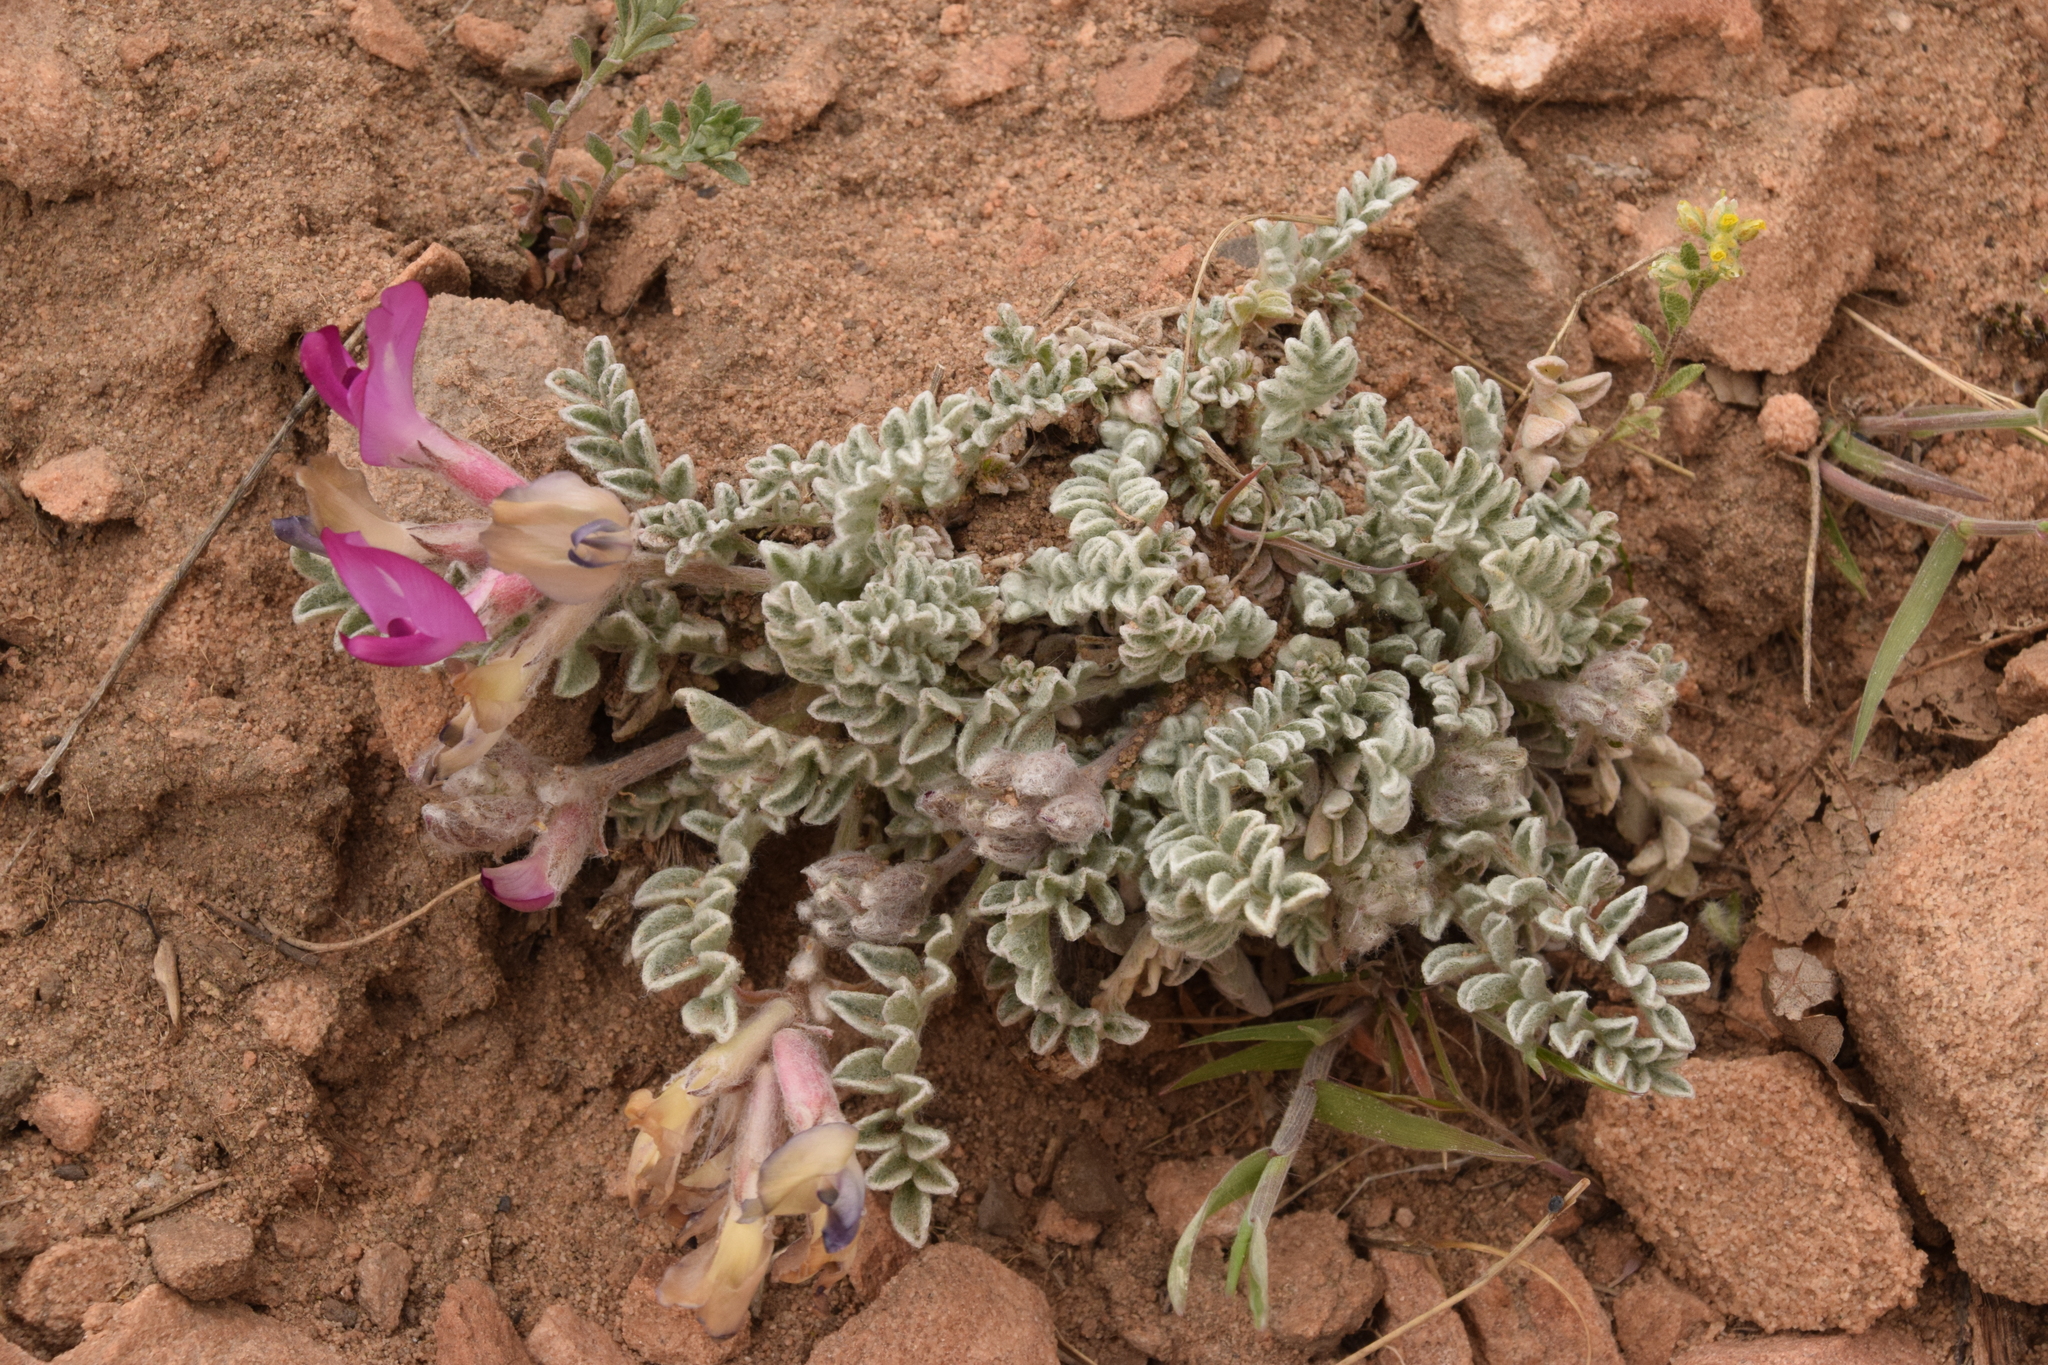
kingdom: Plantae
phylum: Tracheophyta
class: Magnoliopsida
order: Fabales
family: Fabaceae
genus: Astragalus
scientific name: Astragalus utahensis
